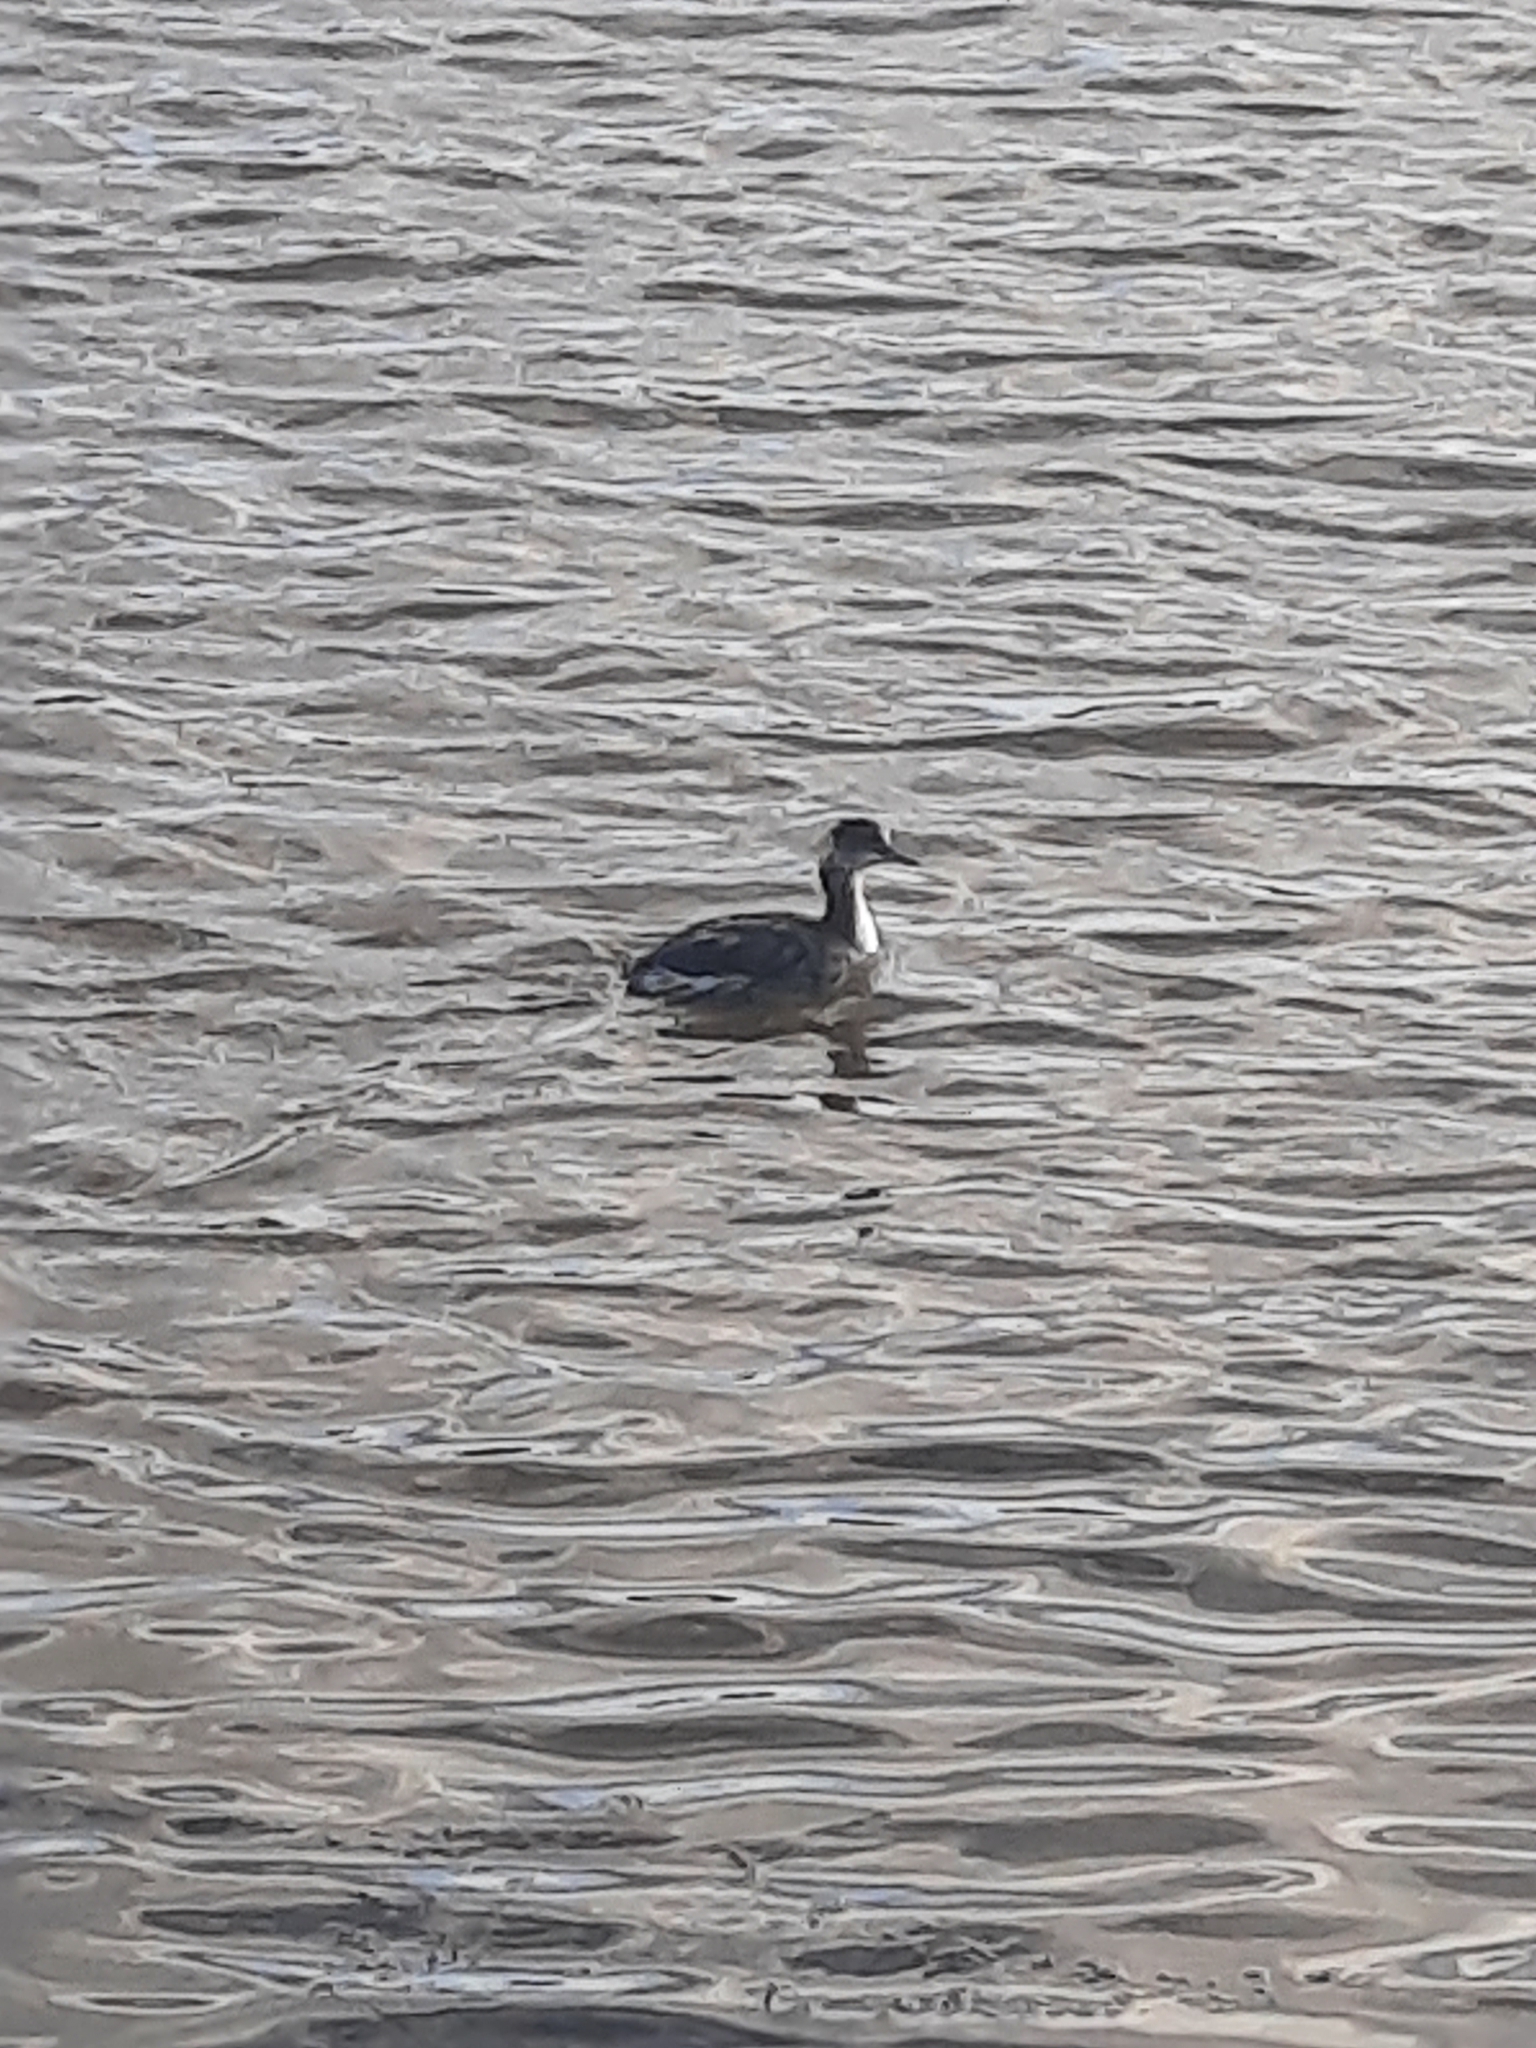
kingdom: Animalia
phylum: Chordata
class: Aves
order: Podicipediformes
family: Podicipedidae
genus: Podiceps
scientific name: Podiceps nigricollis
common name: Black-necked grebe
